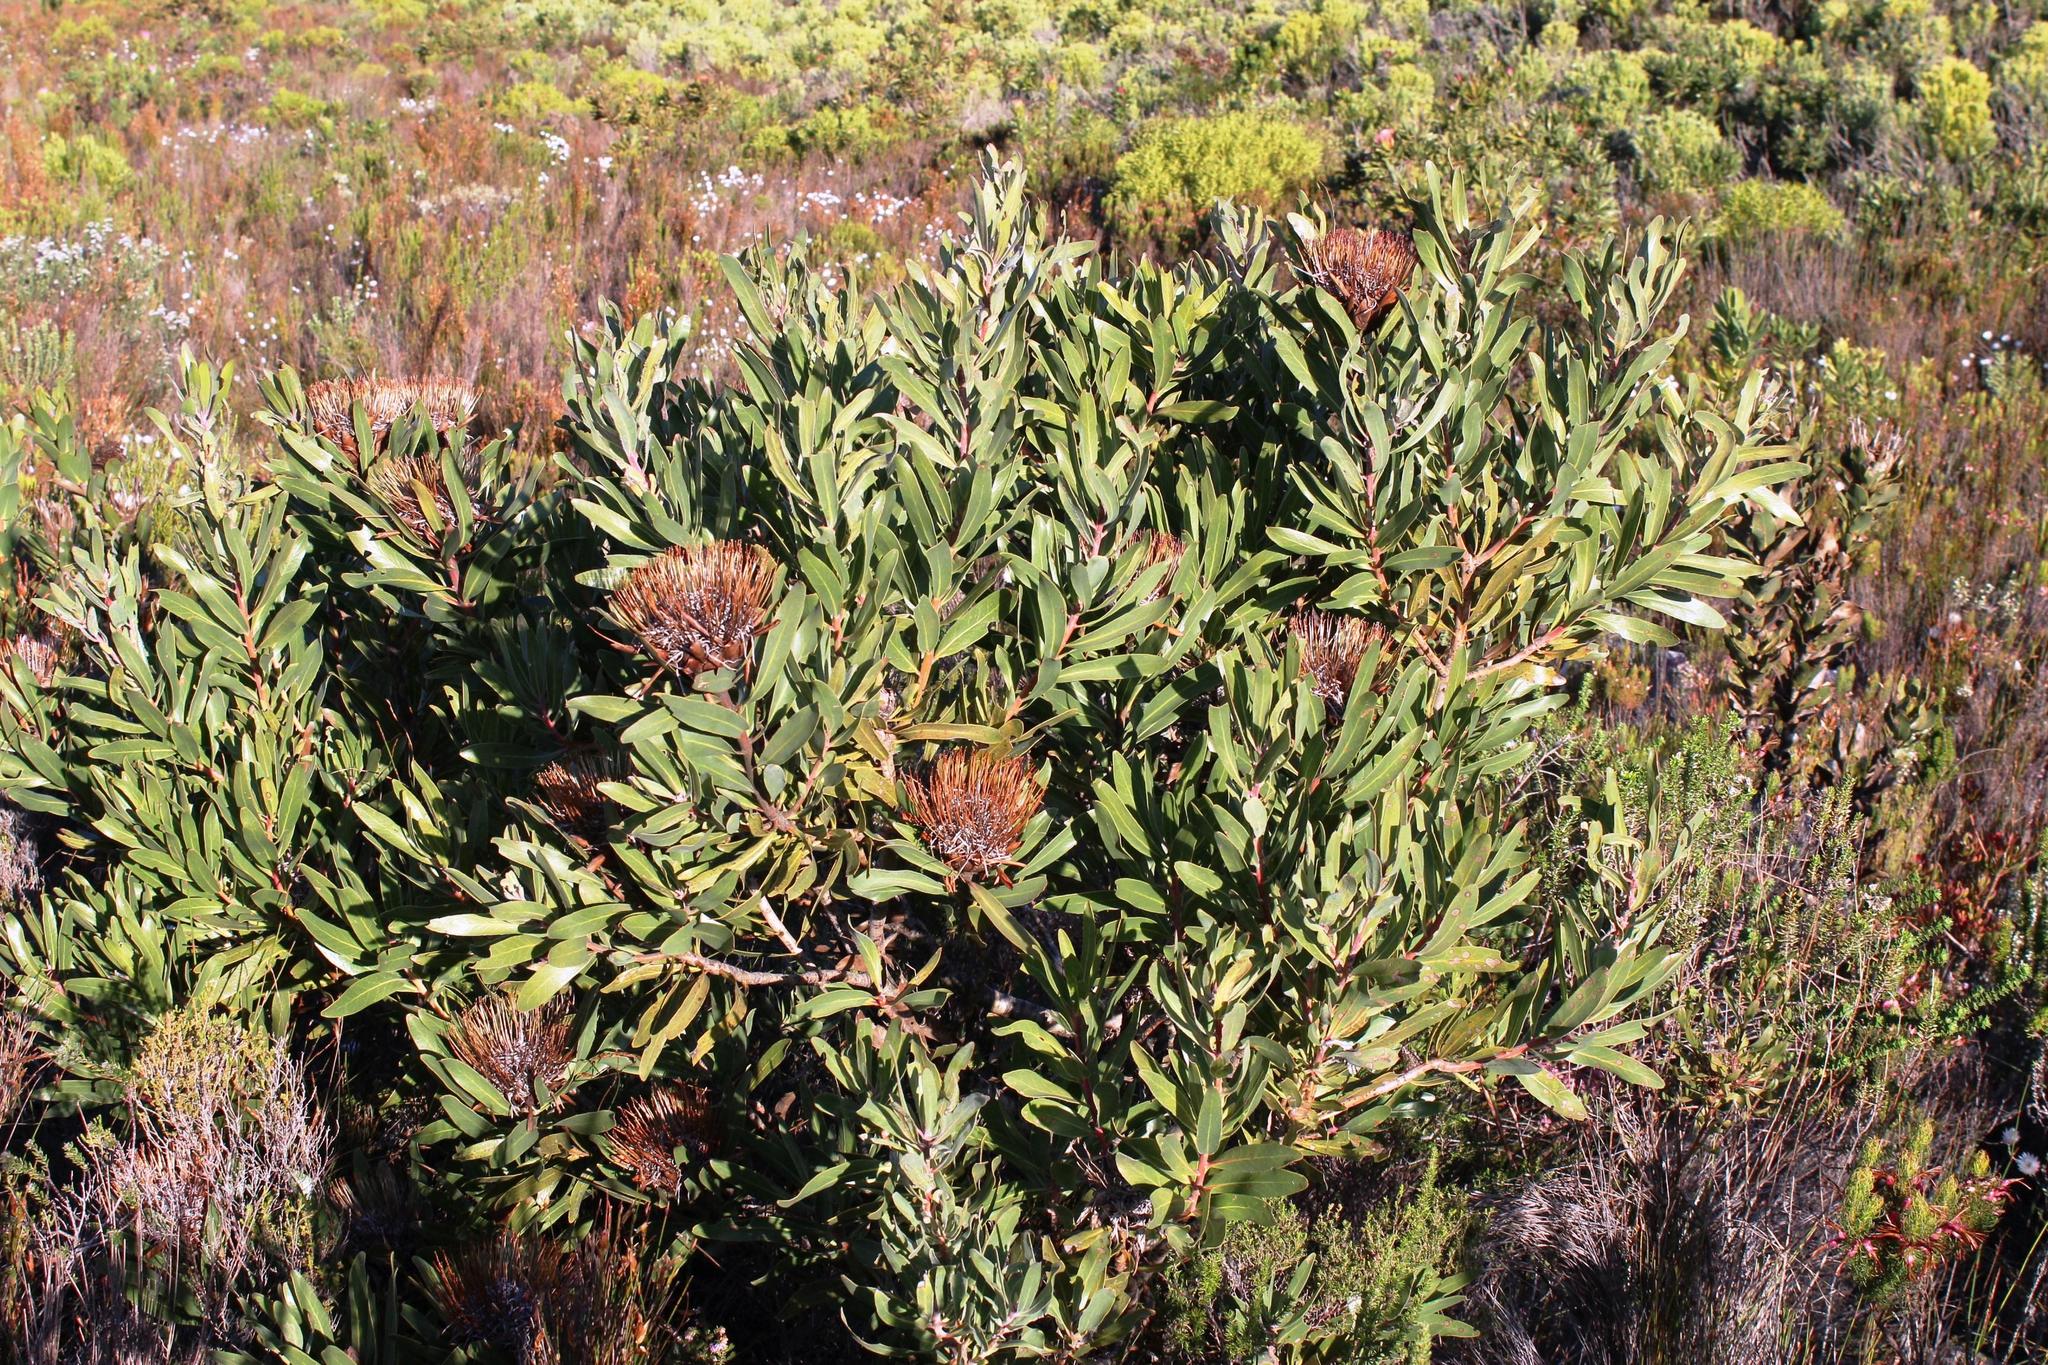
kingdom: Plantae
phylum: Tracheophyta
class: Magnoliopsida
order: Proteales
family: Proteaceae
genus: Protea
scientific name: Protea susannae
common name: Foetid-leaf sugarbush
